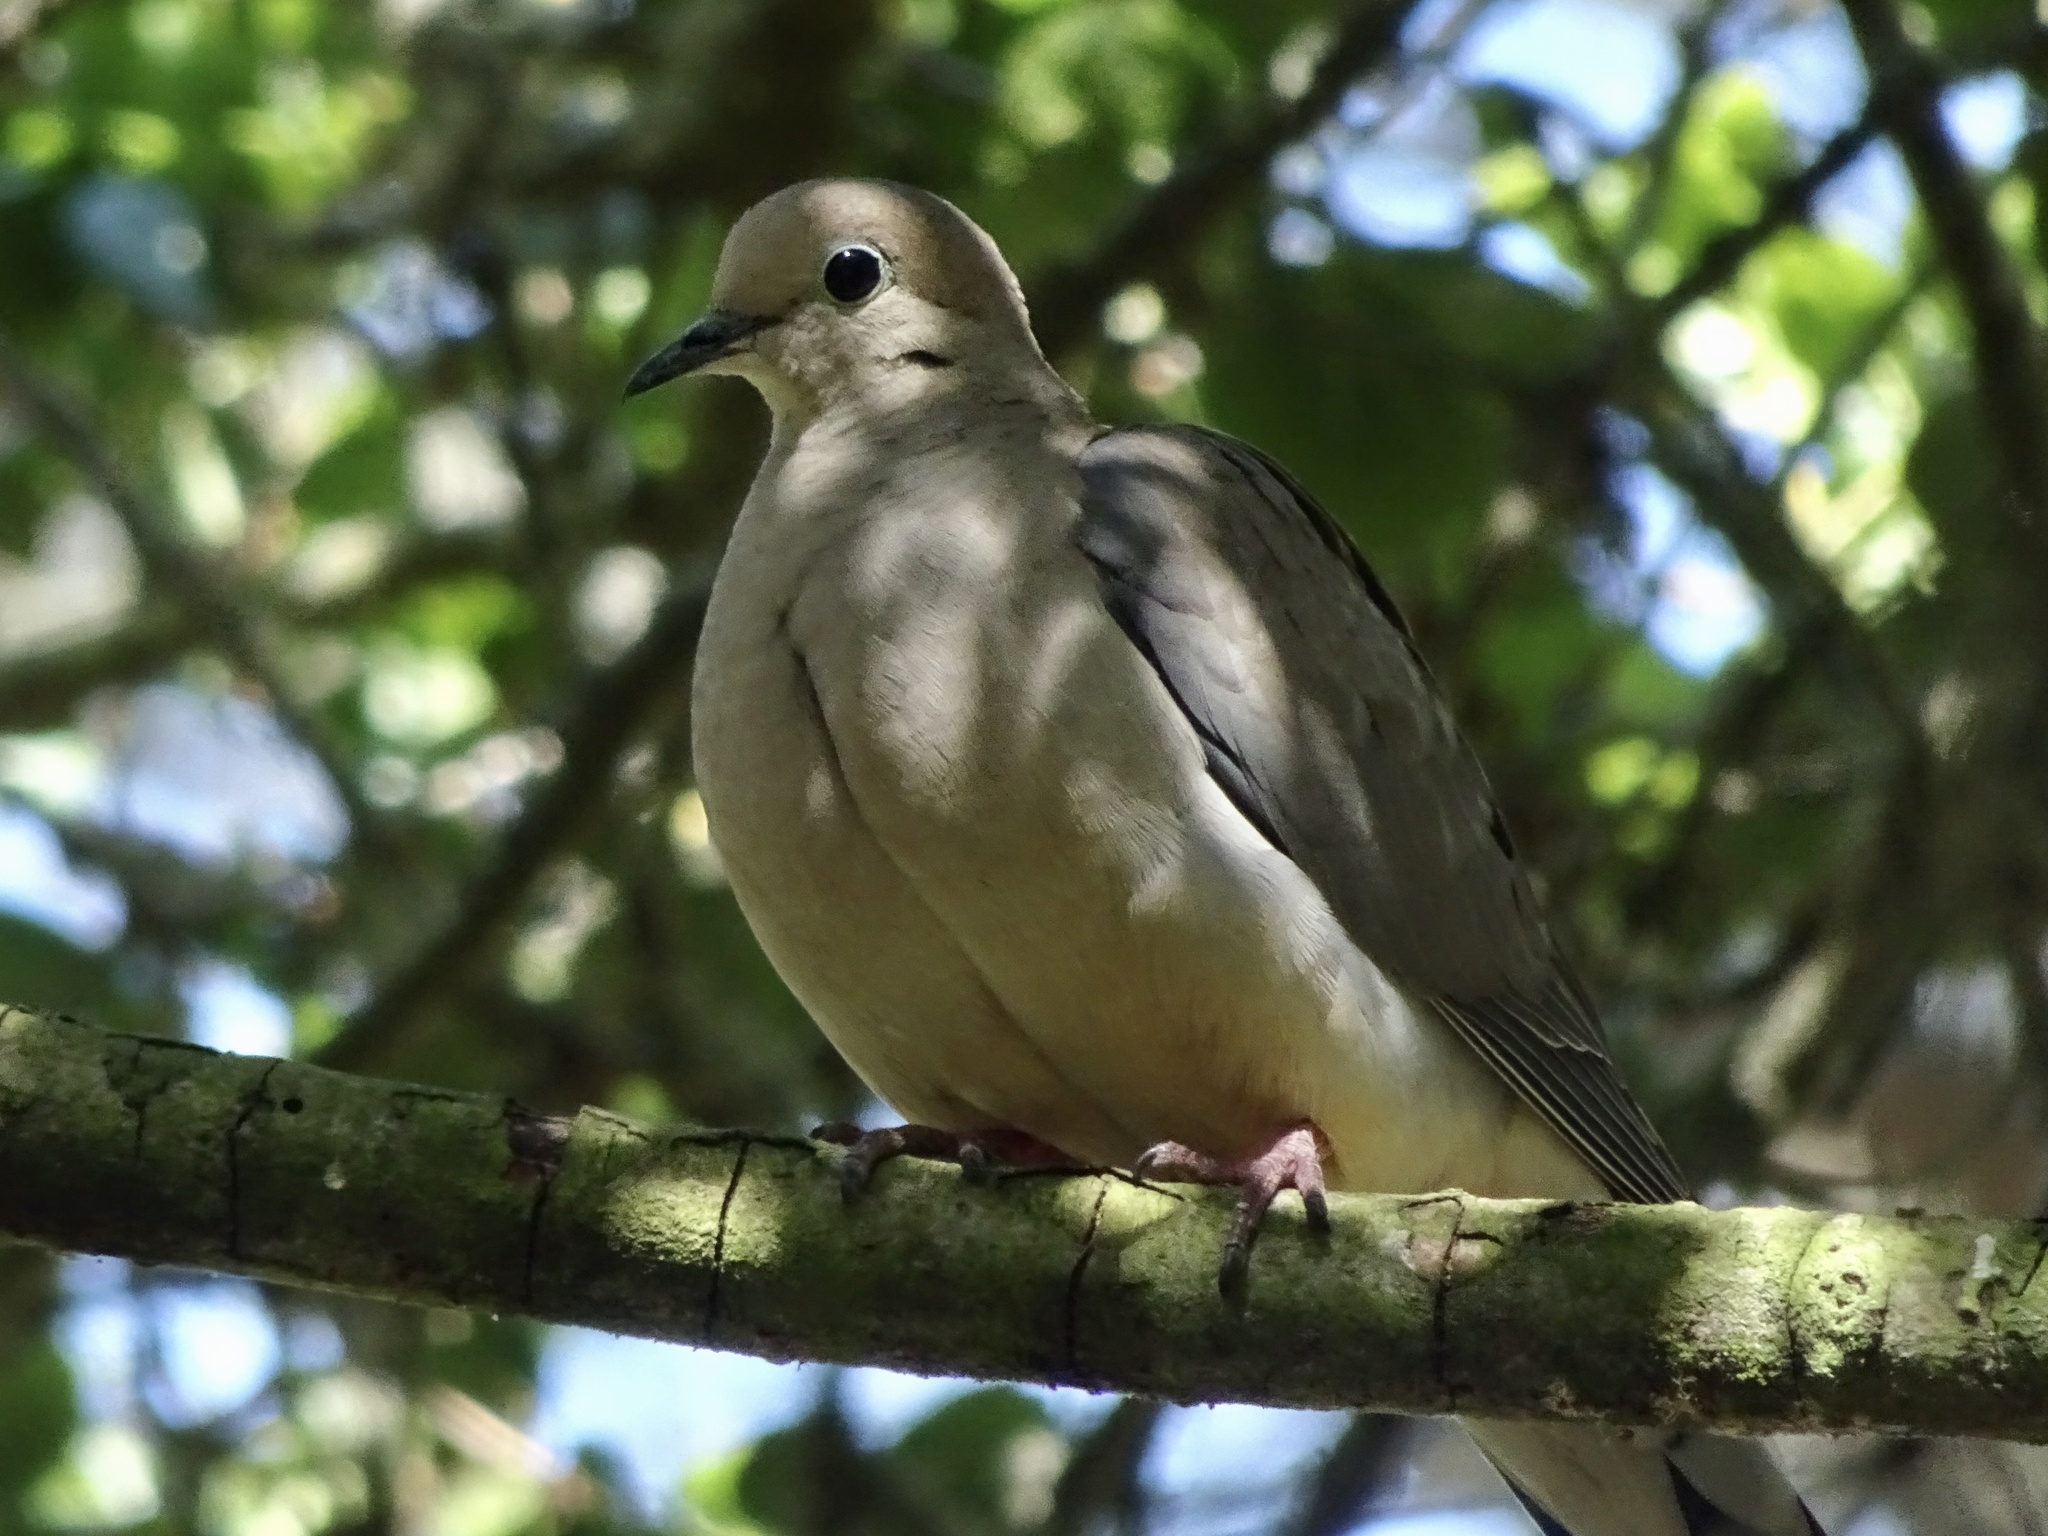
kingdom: Animalia
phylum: Chordata
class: Aves
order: Columbiformes
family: Columbidae
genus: Zenaida
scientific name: Zenaida macroura
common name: Mourning dove
